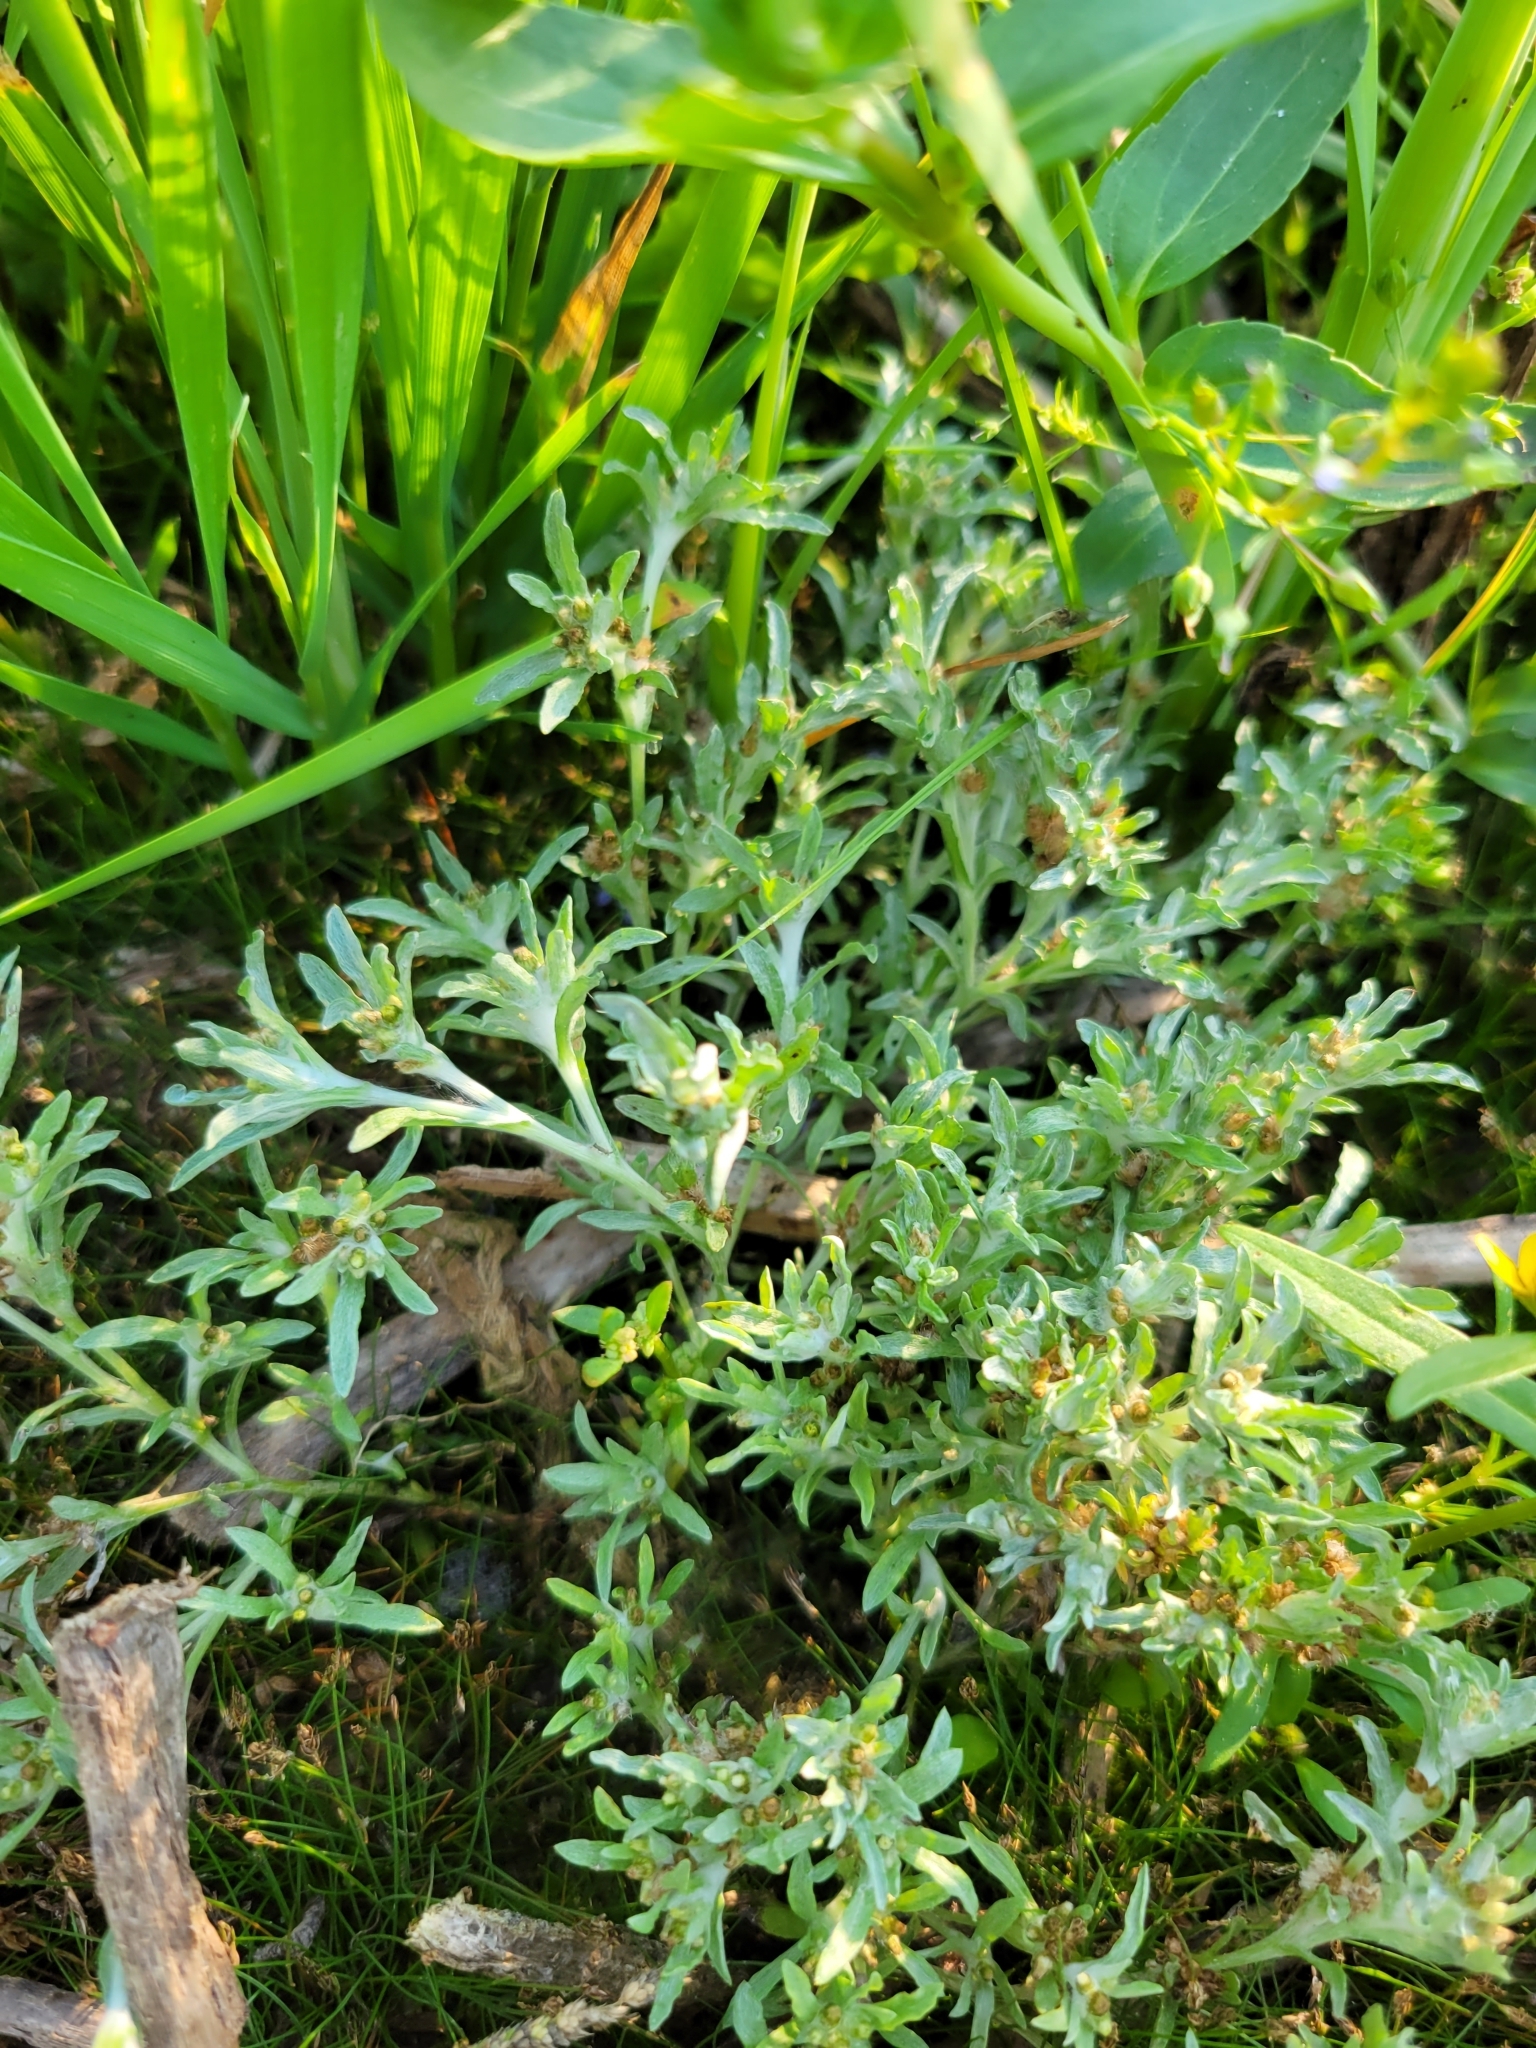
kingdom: Plantae
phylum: Tracheophyta
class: Magnoliopsida
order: Asterales
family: Asteraceae
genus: Gnaphalium
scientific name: Gnaphalium uliginosum
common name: Marsh cudweed
